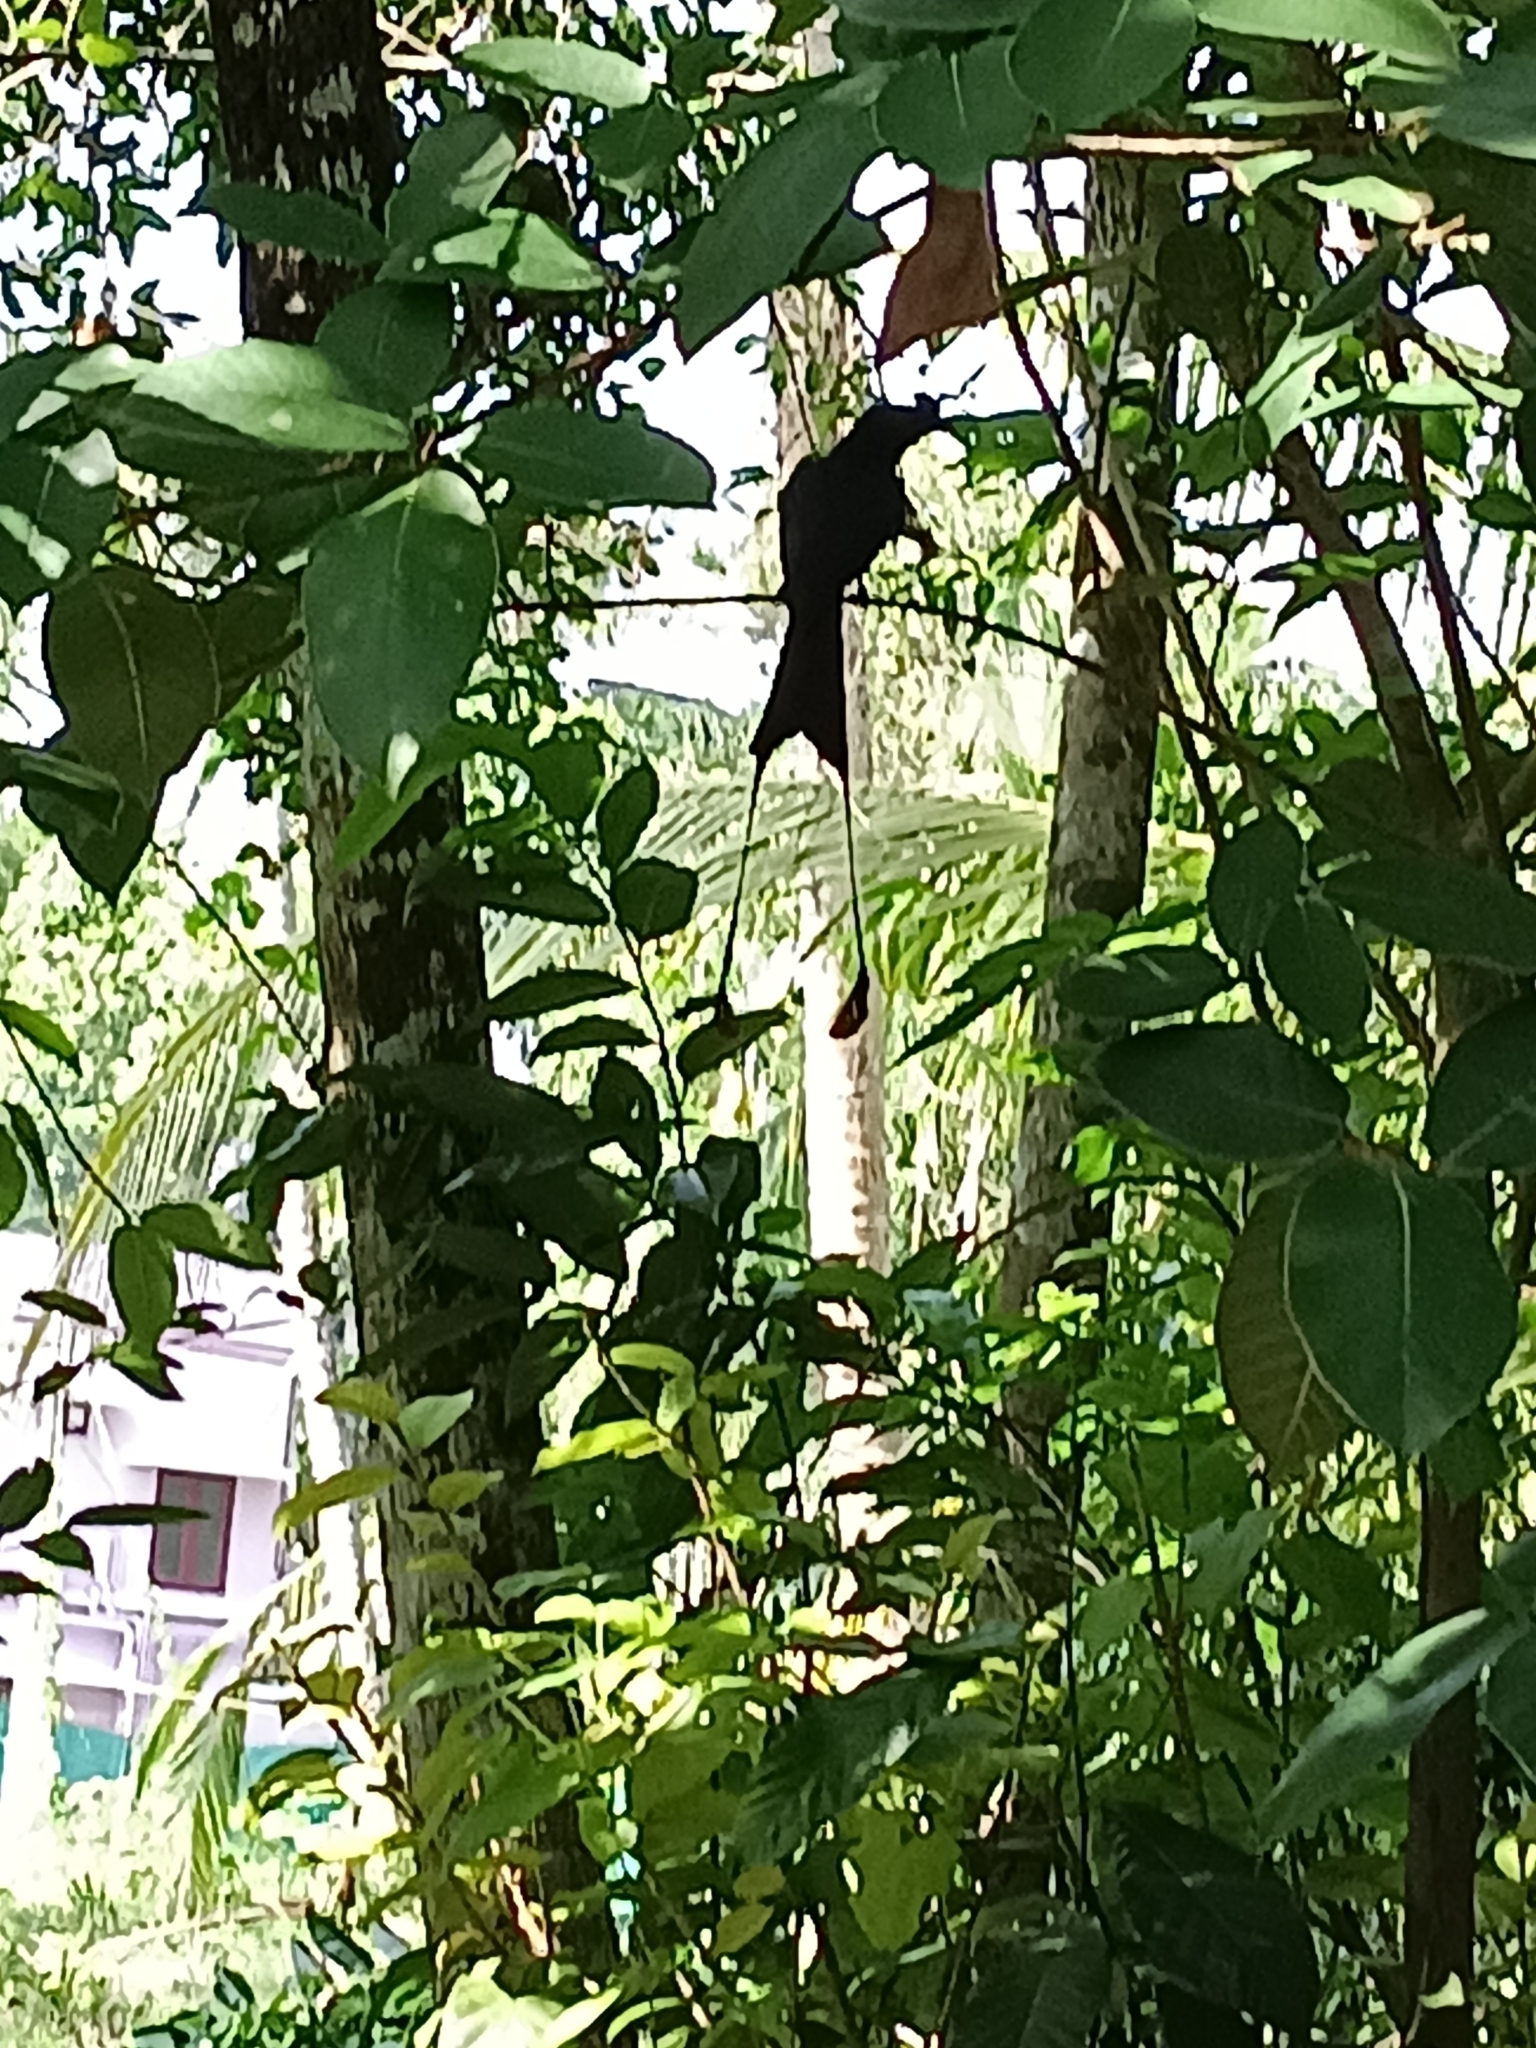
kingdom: Animalia
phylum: Chordata
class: Aves
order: Passeriformes
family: Dicruridae
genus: Dicrurus
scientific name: Dicrurus paradiseus
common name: Greater racket-tailed drongo
